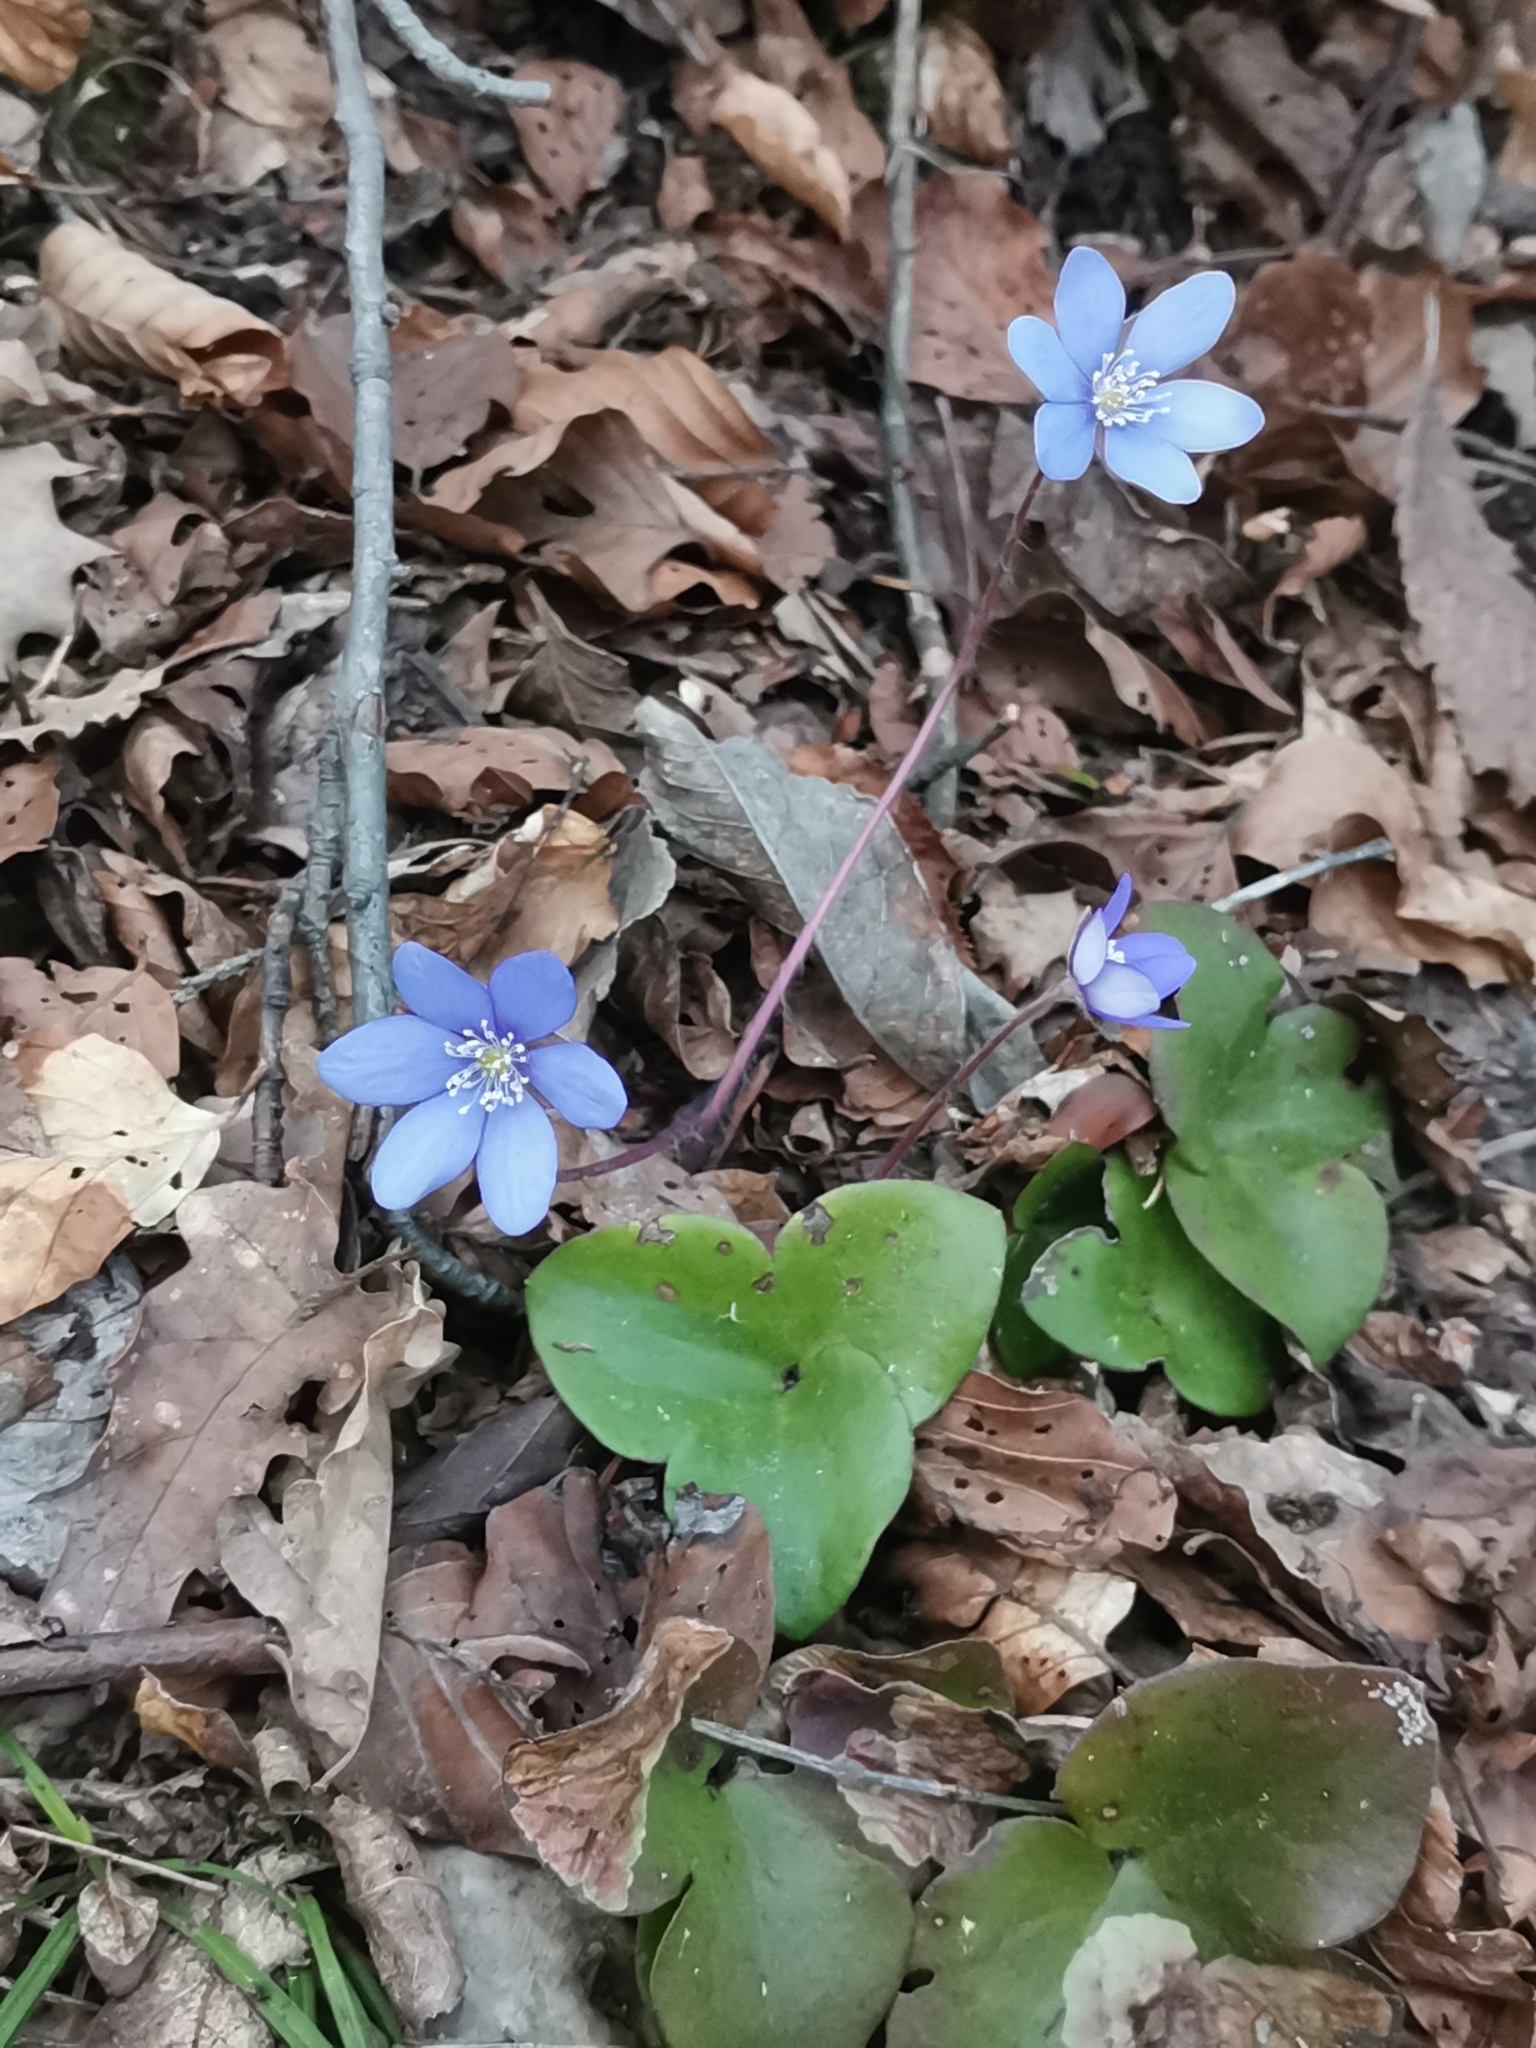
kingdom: Plantae
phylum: Tracheophyta
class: Magnoliopsida
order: Ranunculales
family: Ranunculaceae
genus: Hepatica
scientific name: Hepatica nobilis
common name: Liverleaf
